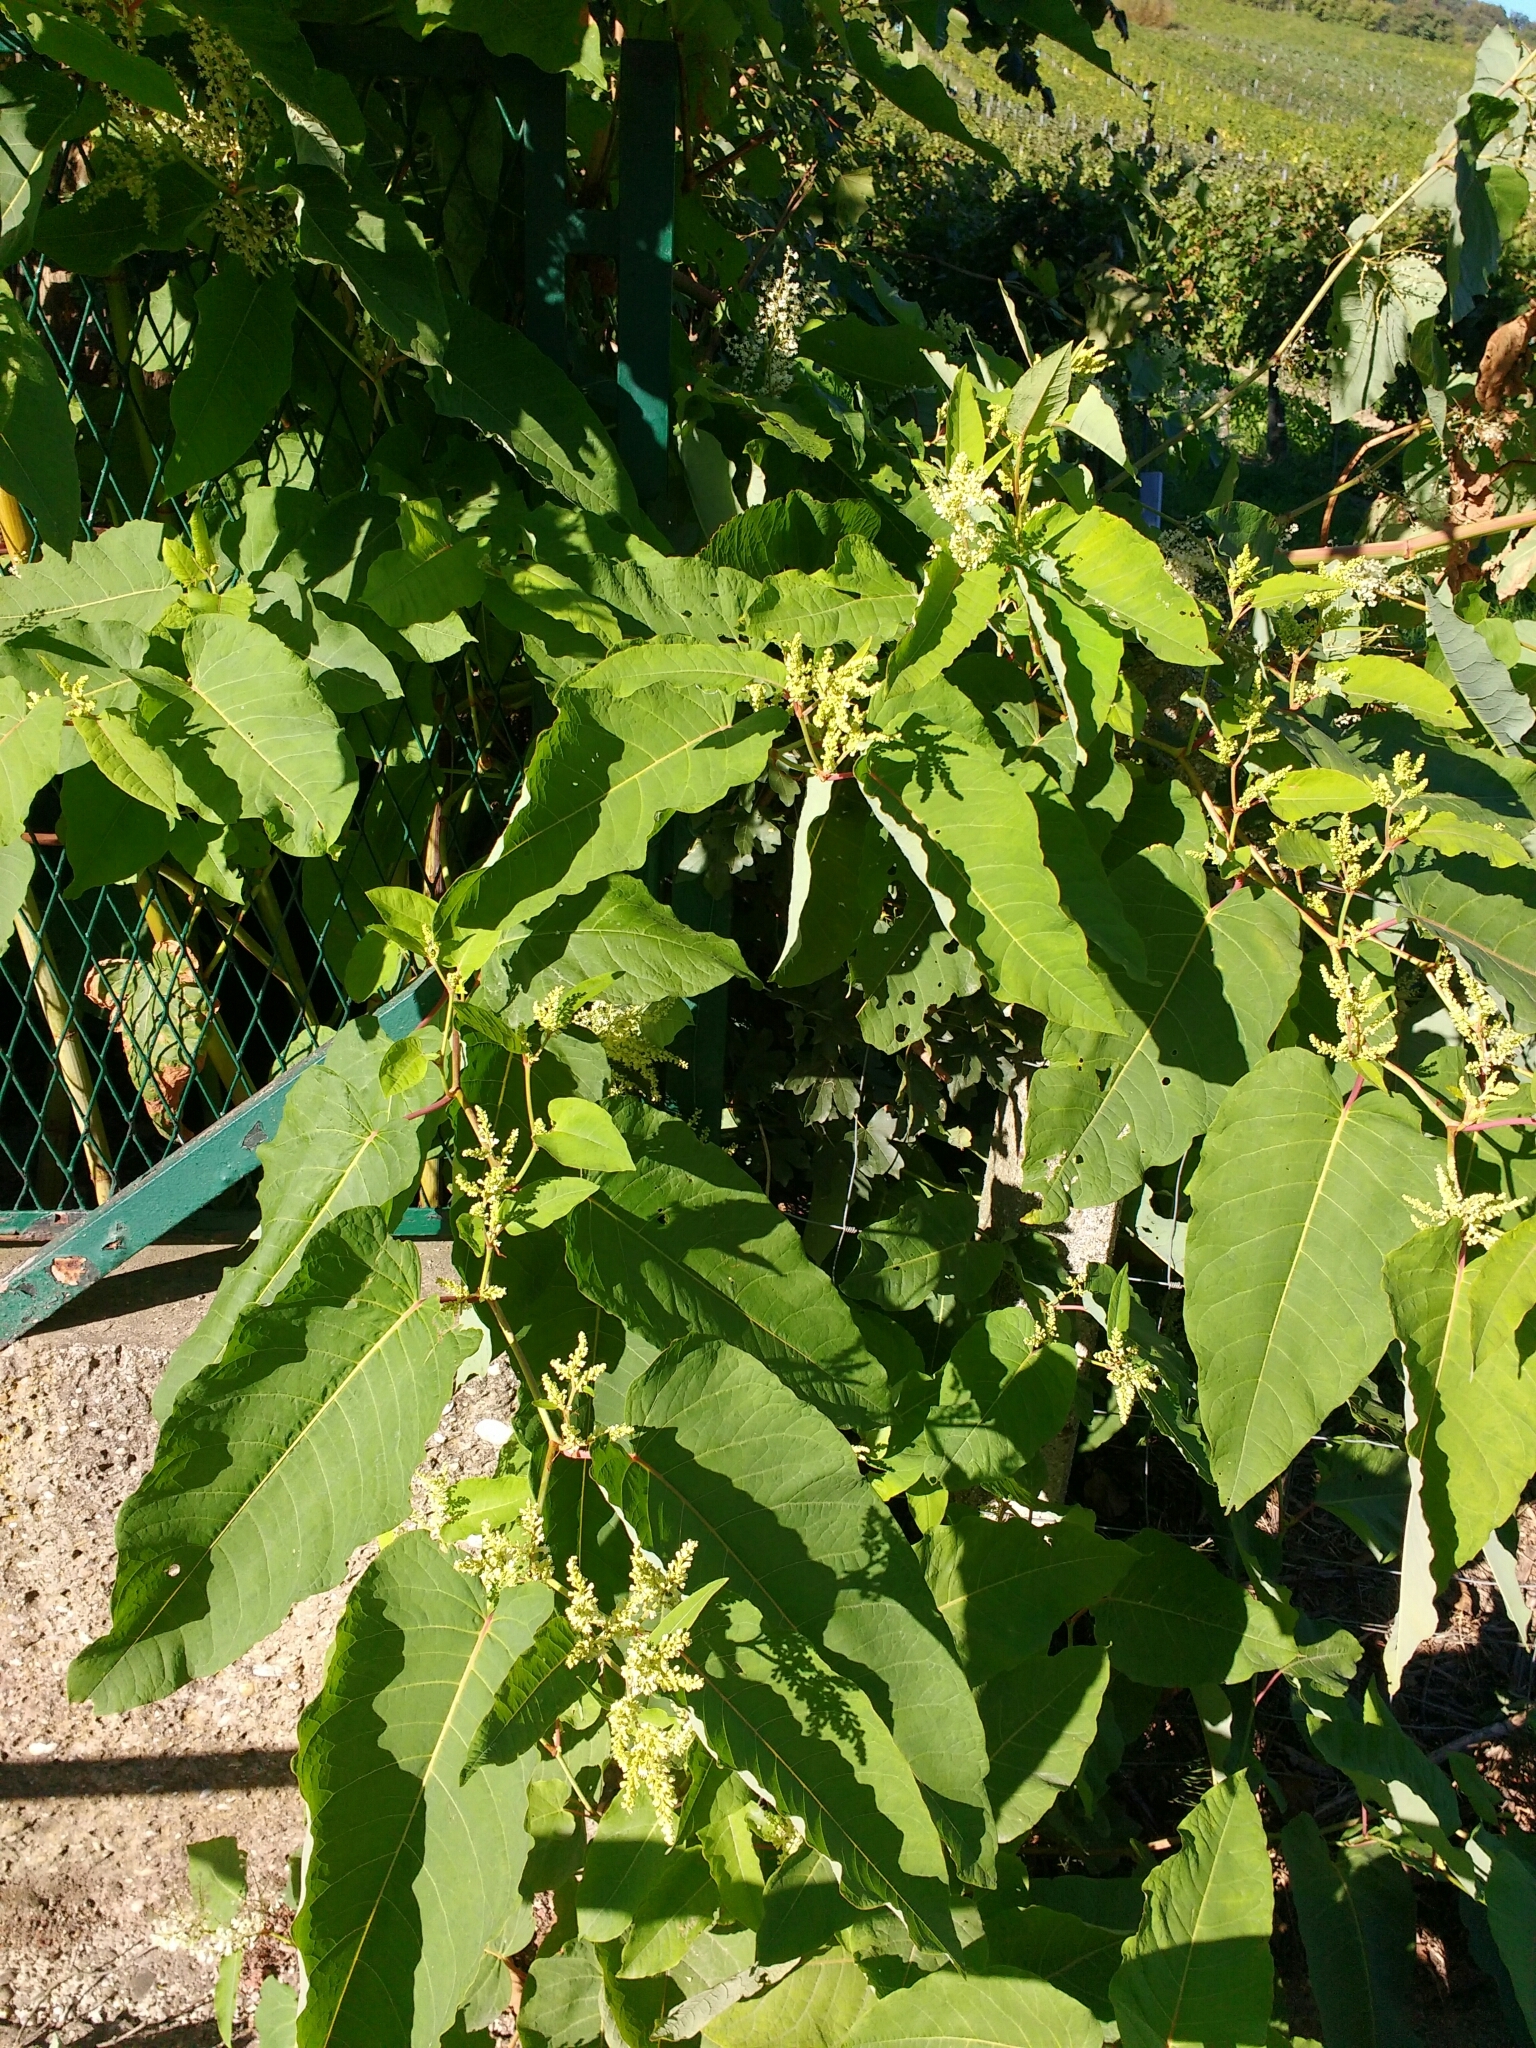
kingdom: Plantae
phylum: Tracheophyta
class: Magnoliopsida
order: Caryophyllales
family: Polygonaceae
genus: Reynoutria
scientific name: Reynoutria sachalinensis
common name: Giant knotweed
